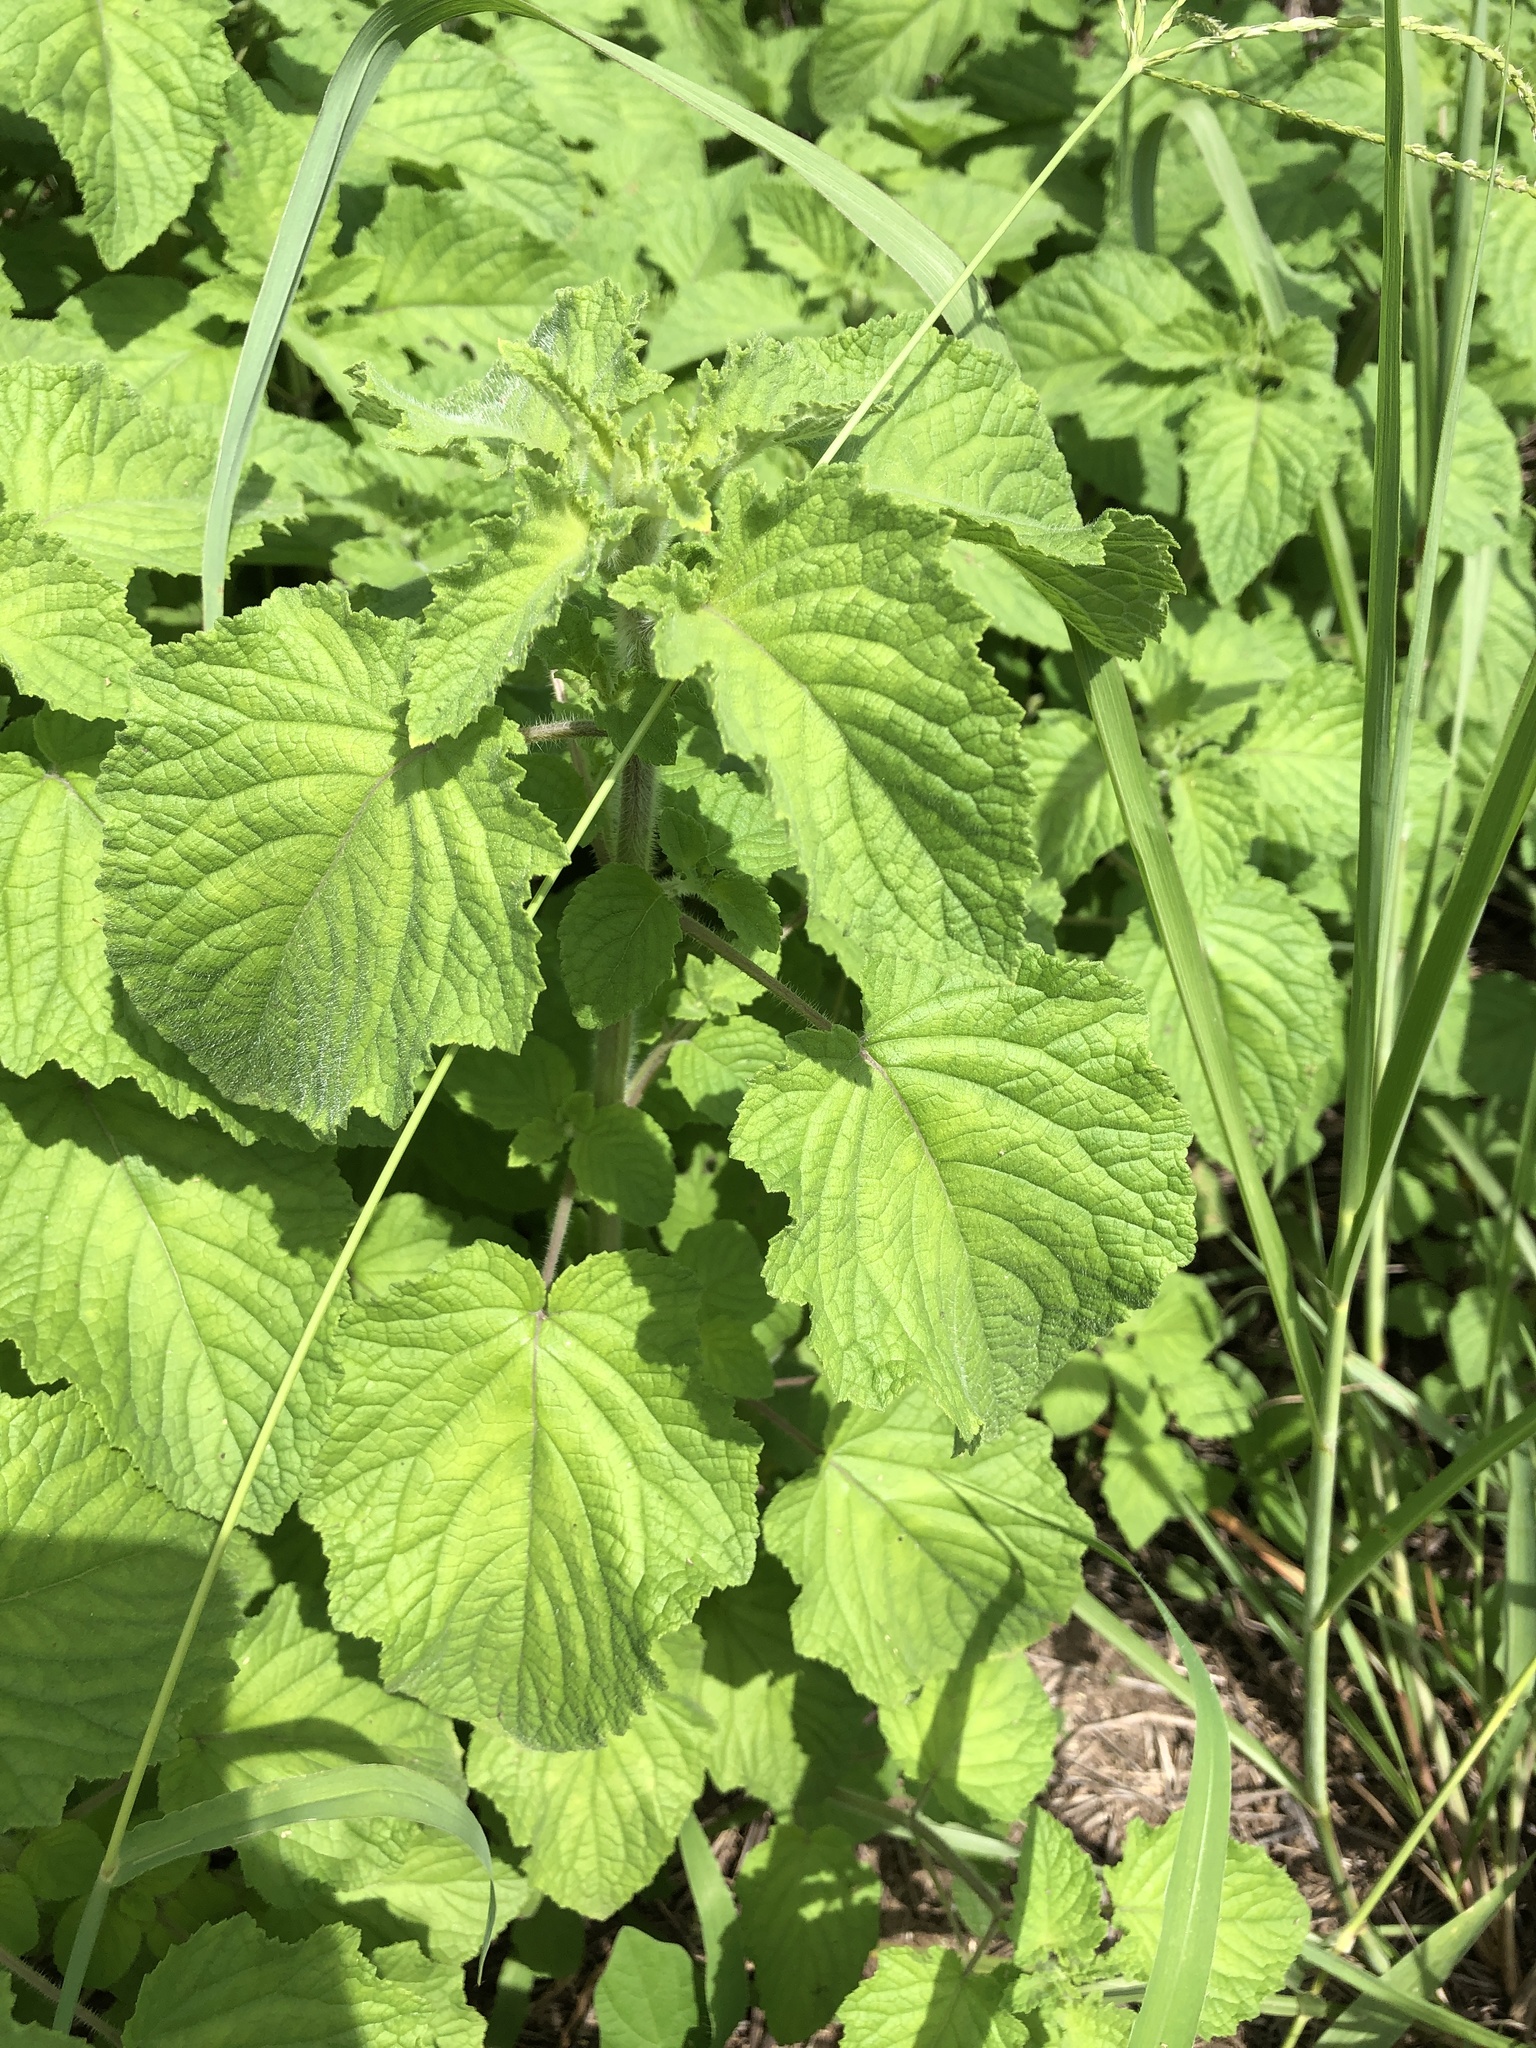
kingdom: Plantae
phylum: Tracheophyta
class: Magnoliopsida
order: Lamiales
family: Lamiaceae
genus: Mesosphaerum
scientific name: Mesosphaerum suaveolens
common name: Pignut
